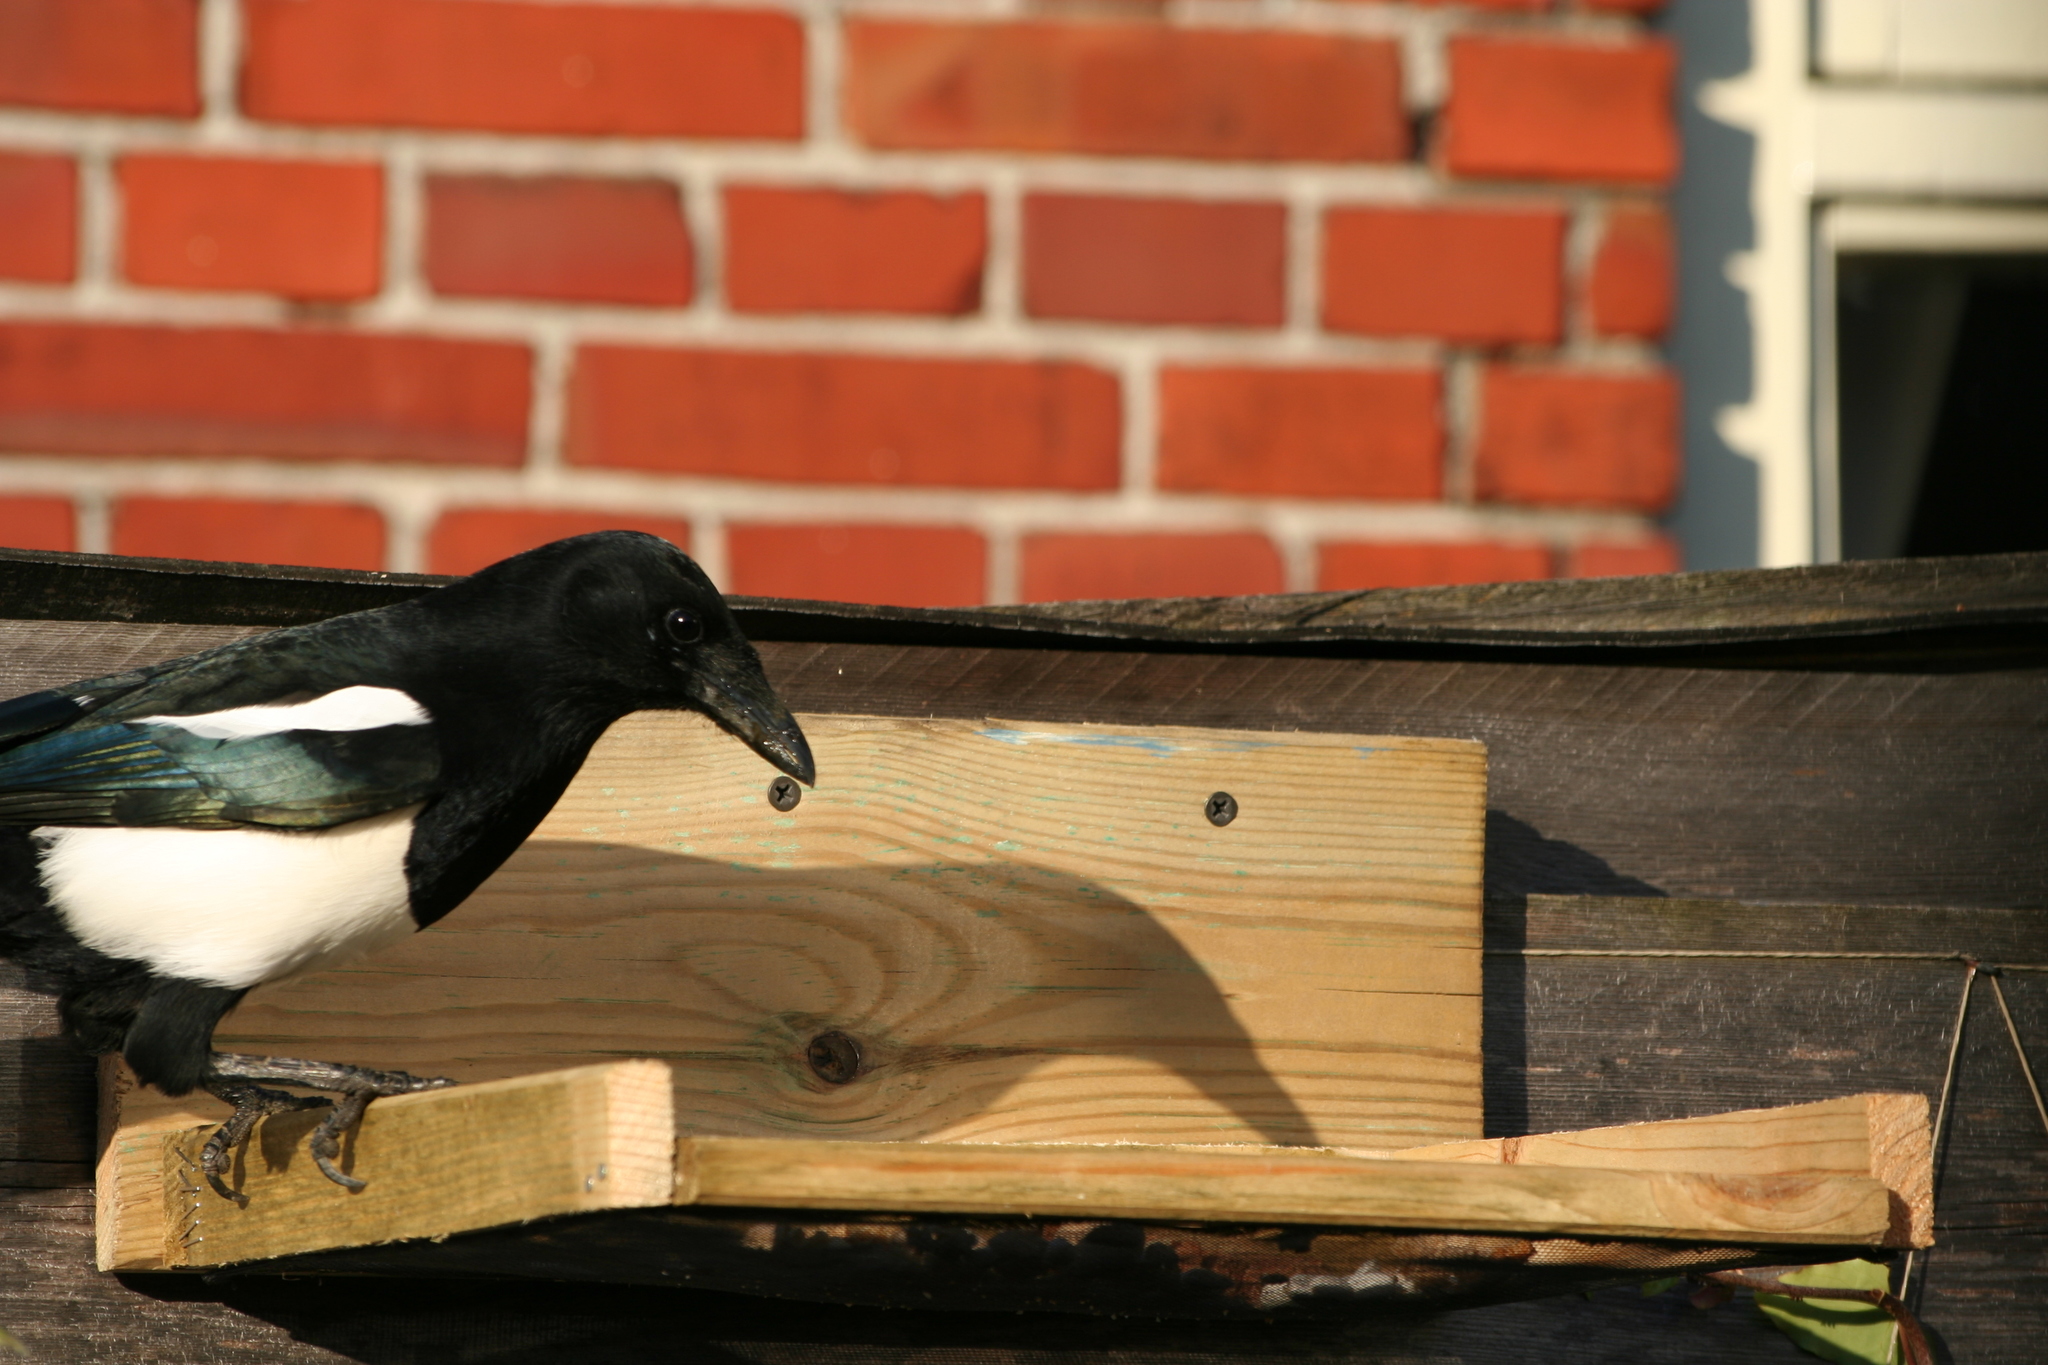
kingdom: Animalia
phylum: Chordata
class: Aves
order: Passeriformes
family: Corvidae
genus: Pica
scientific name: Pica pica
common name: Eurasian magpie
